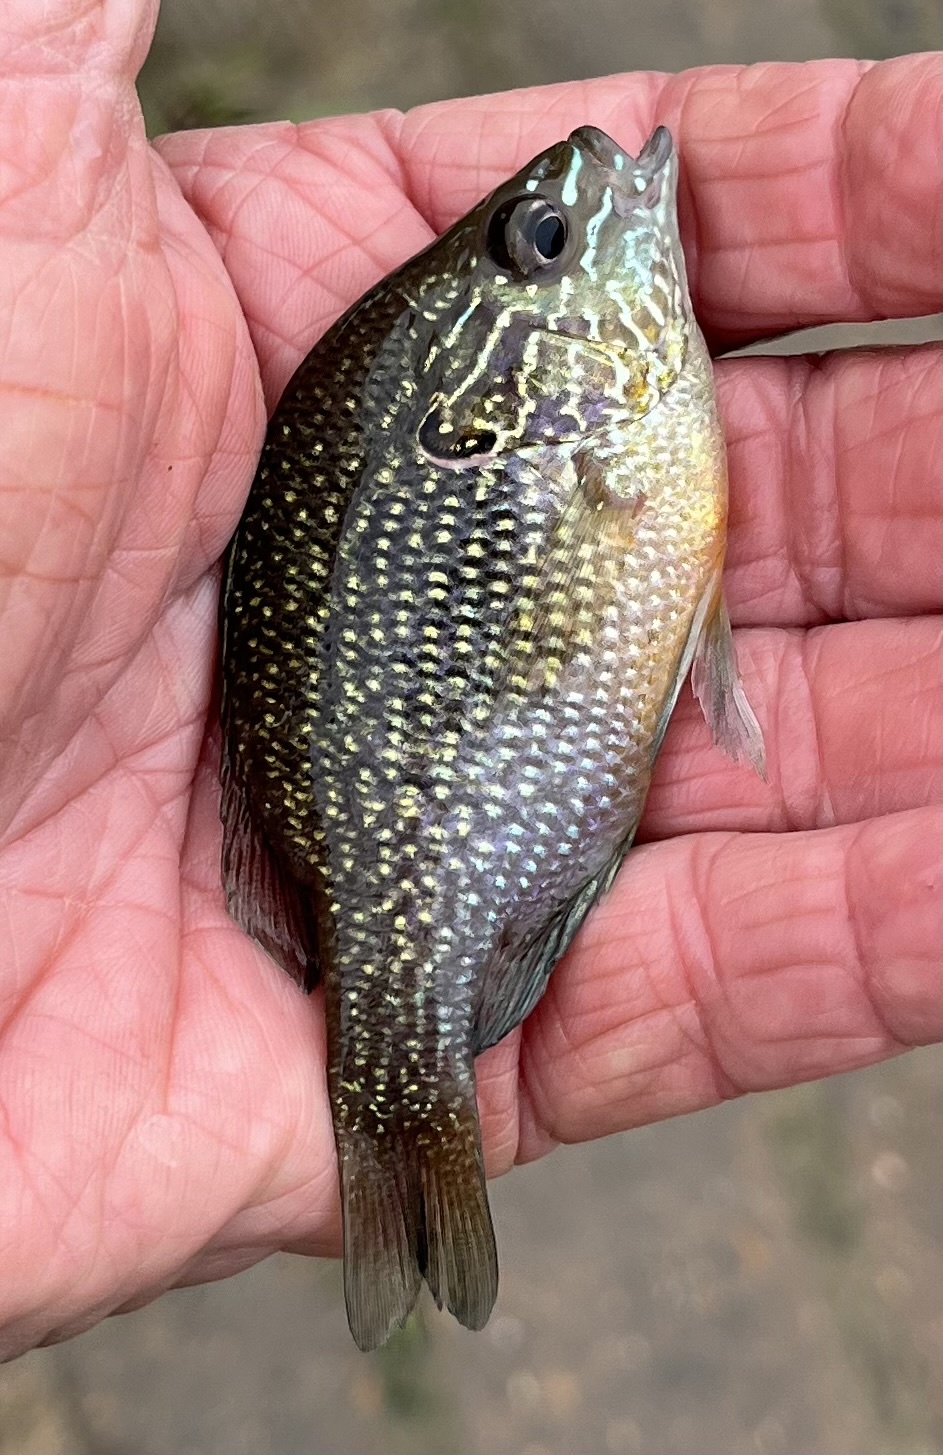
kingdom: Animalia
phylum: Chordata
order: Perciformes
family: Centrarchidae
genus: Lepomis
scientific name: Lepomis marginatus
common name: Dollar sunfish
